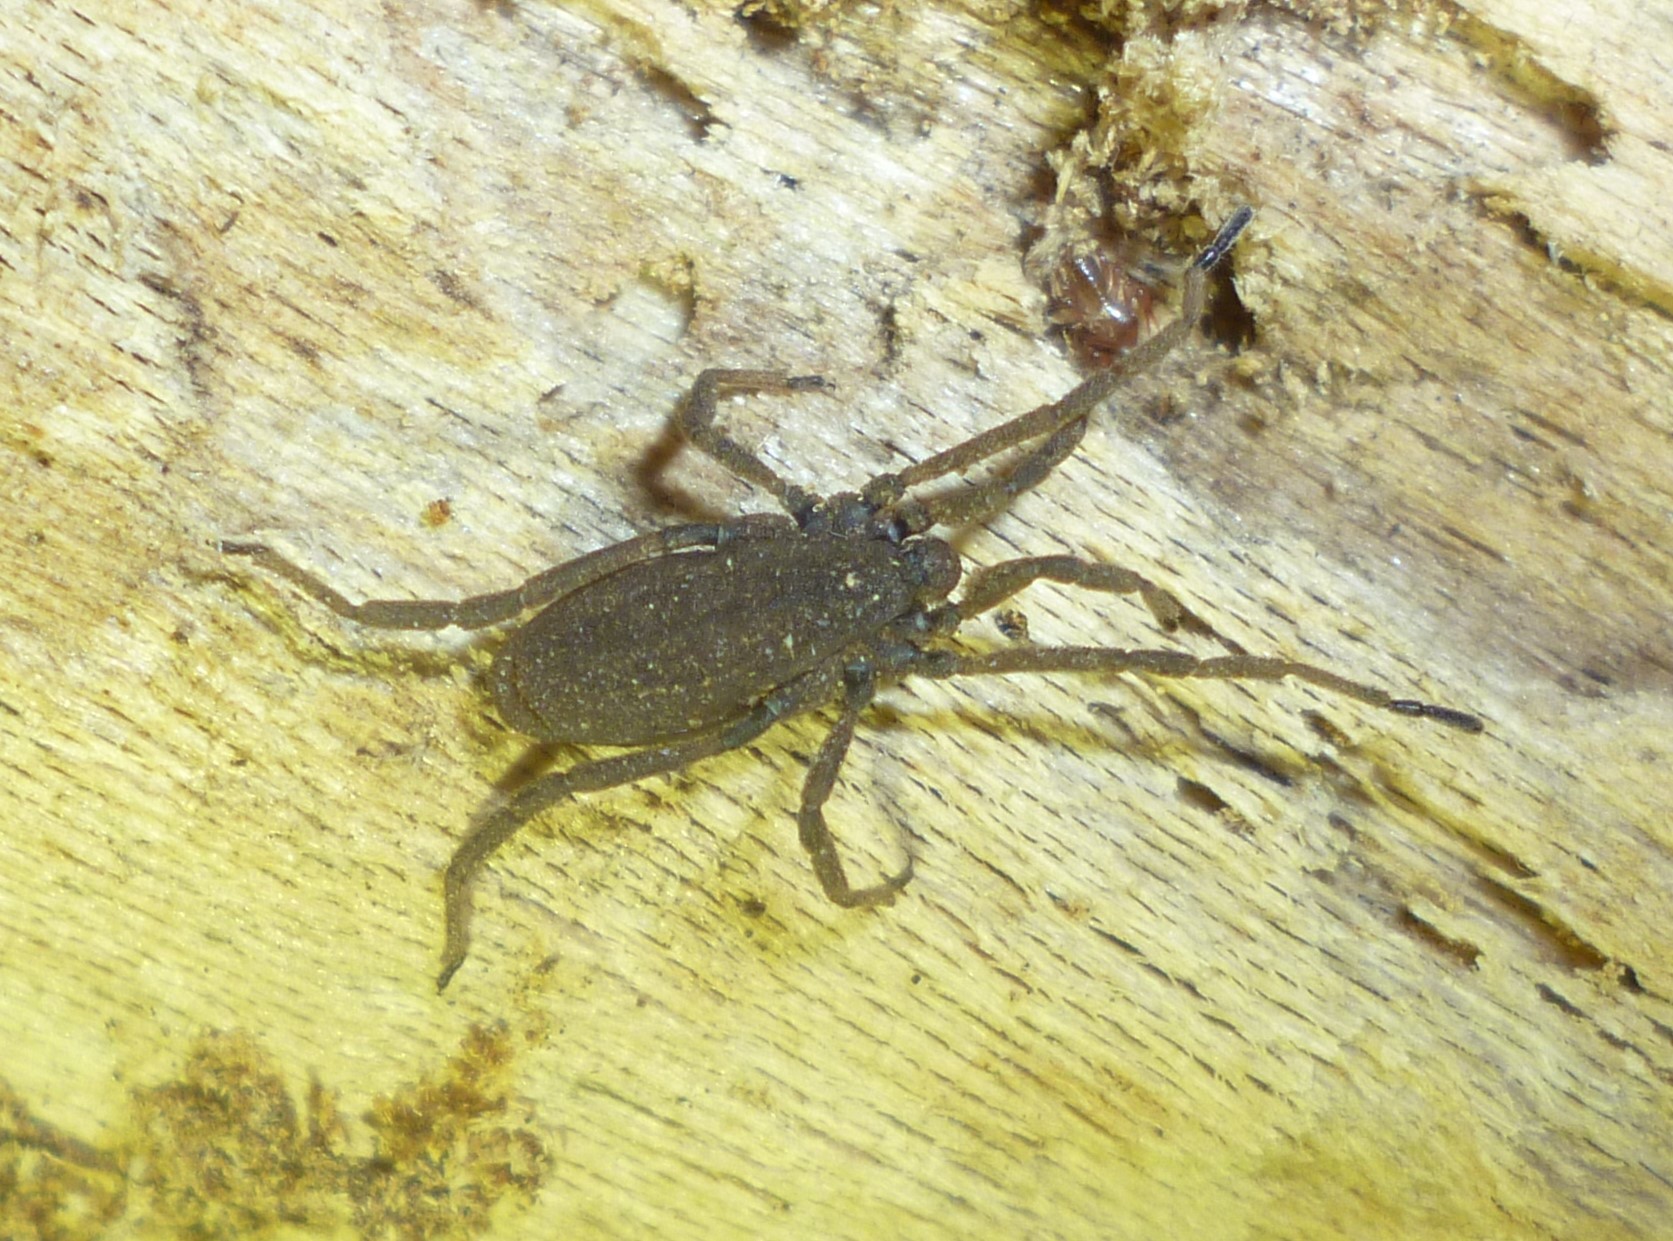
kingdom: Animalia
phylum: Arthropoda
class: Arachnida
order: Opiliones
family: Trogulidae
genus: Trogulus
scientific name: Trogulus tricarinatus
